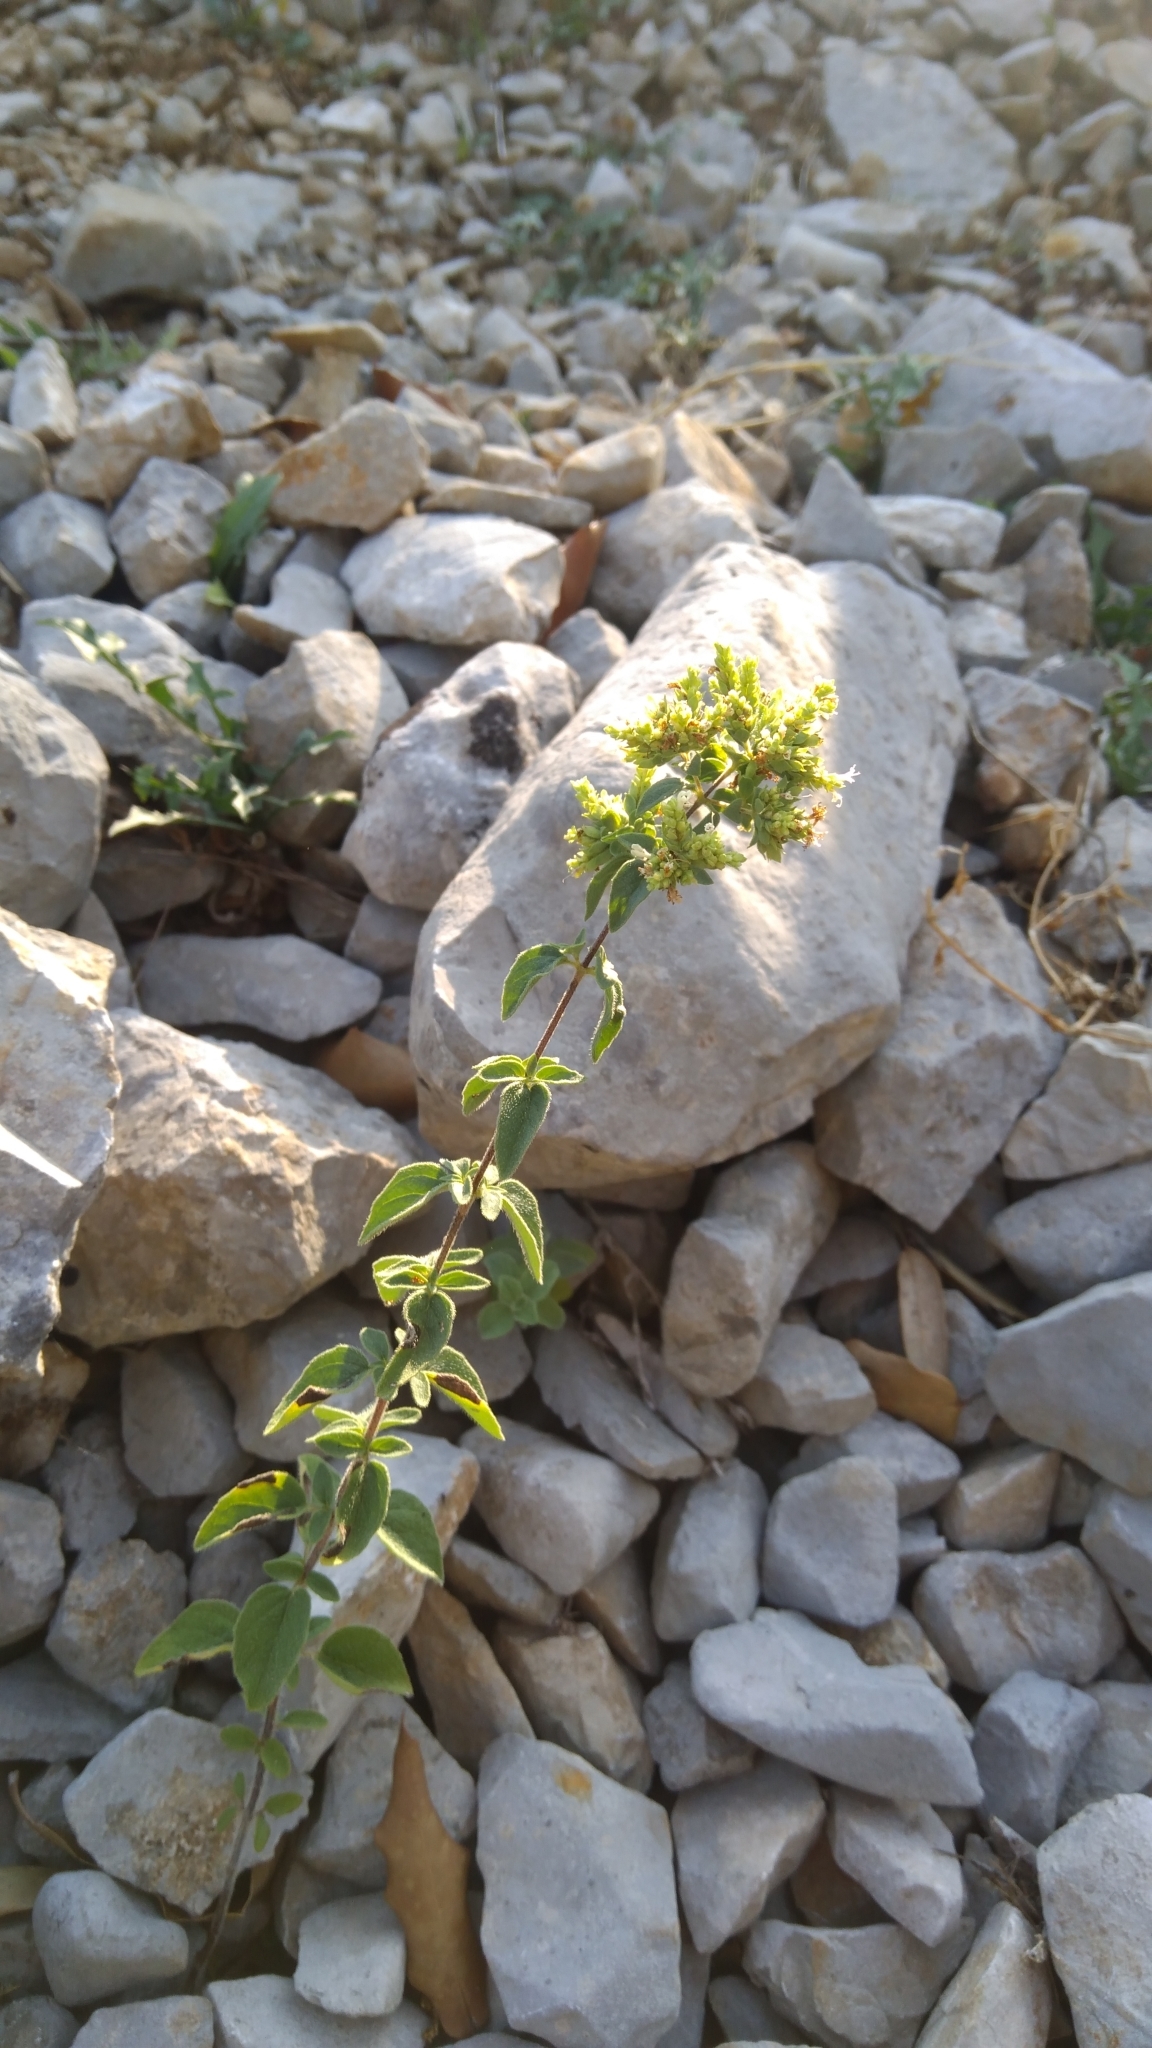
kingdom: Plantae
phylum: Tracheophyta
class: Magnoliopsida
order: Lamiales
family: Lamiaceae
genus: Origanum
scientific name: Origanum vulgare
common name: Wild marjoram
